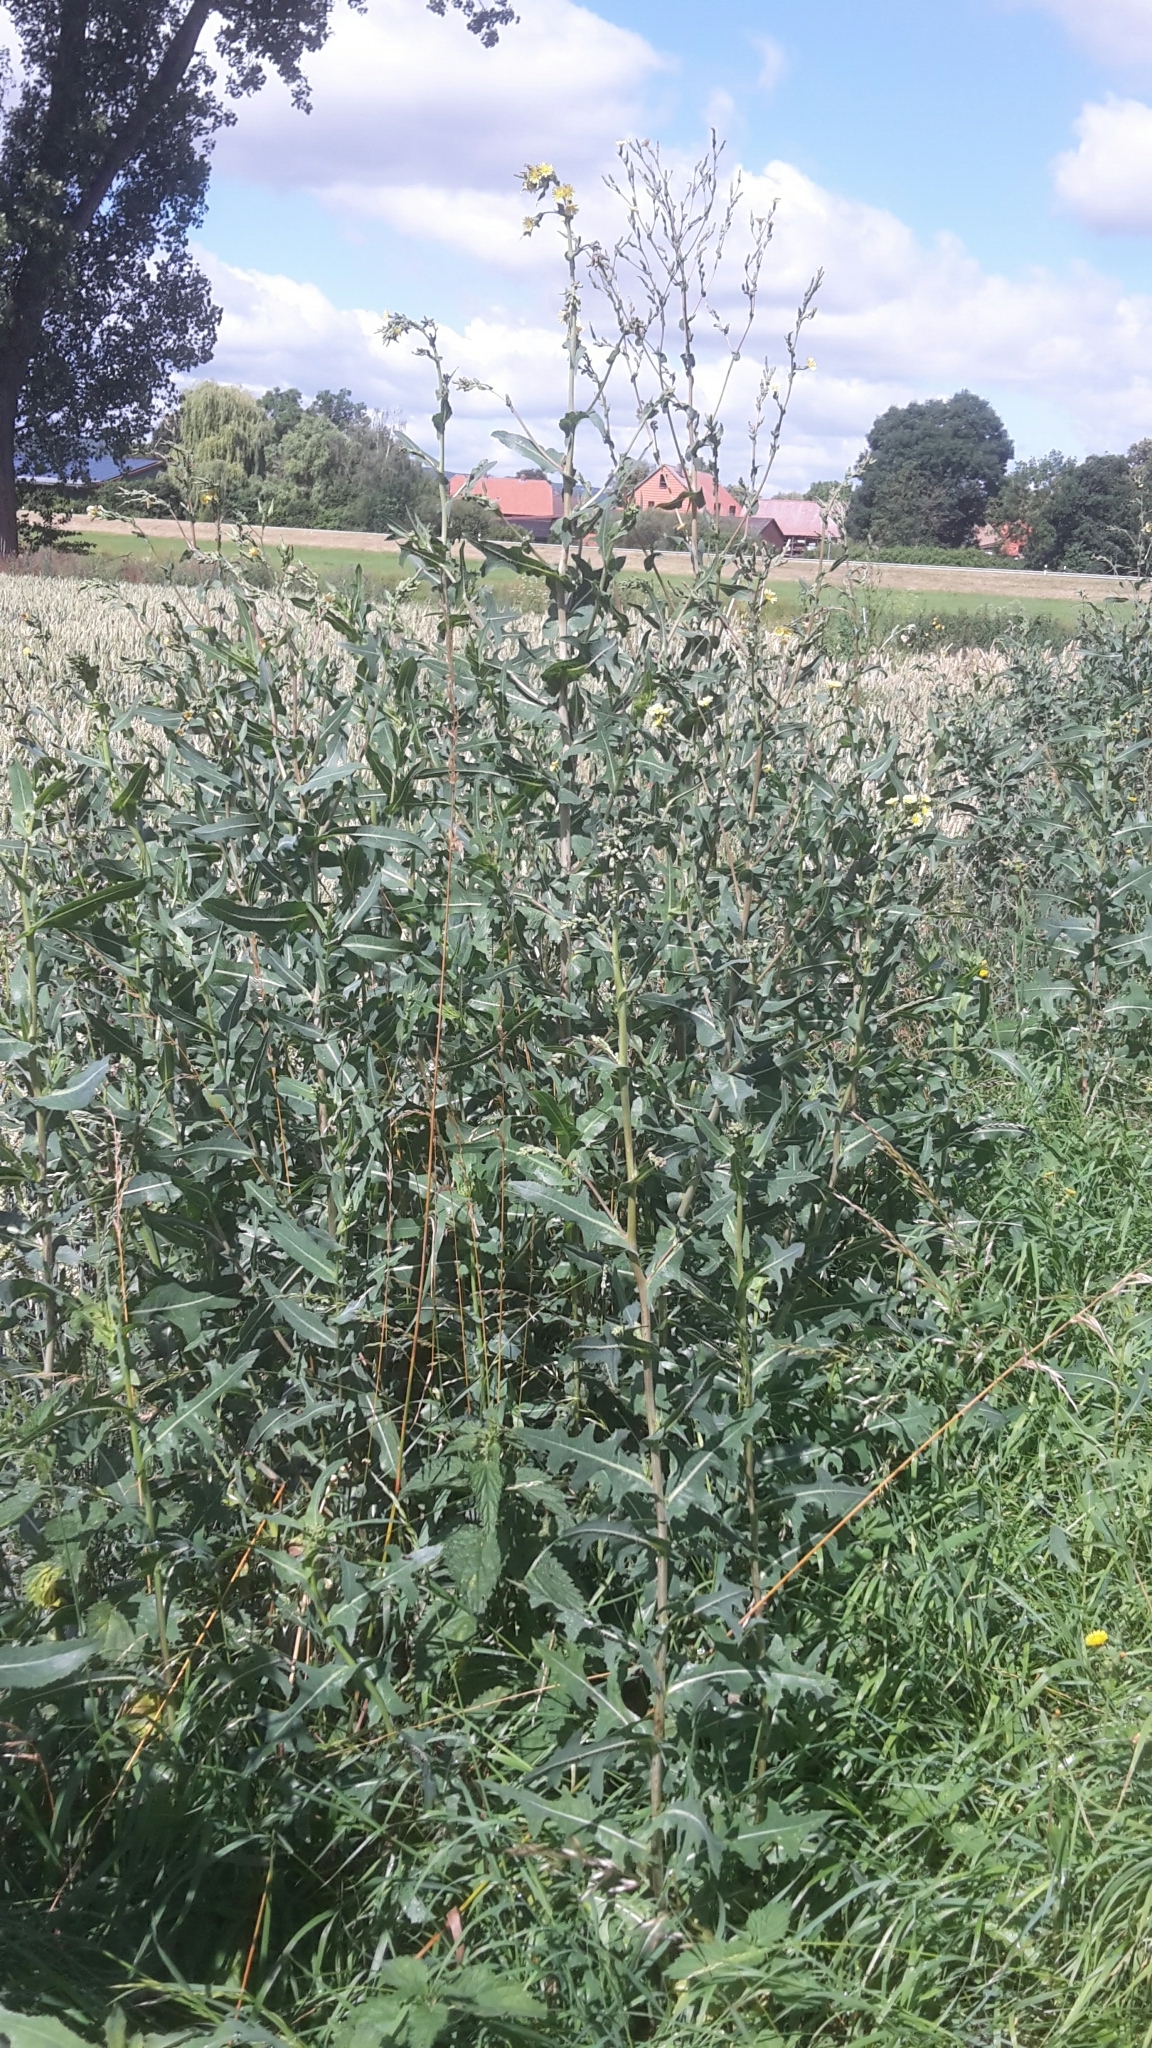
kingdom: Plantae
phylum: Tracheophyta
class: Magnoliopsida
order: Asterales
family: Asteraceae
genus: Lactuca
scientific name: Lactuca serriola
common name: Prickly lettuce
